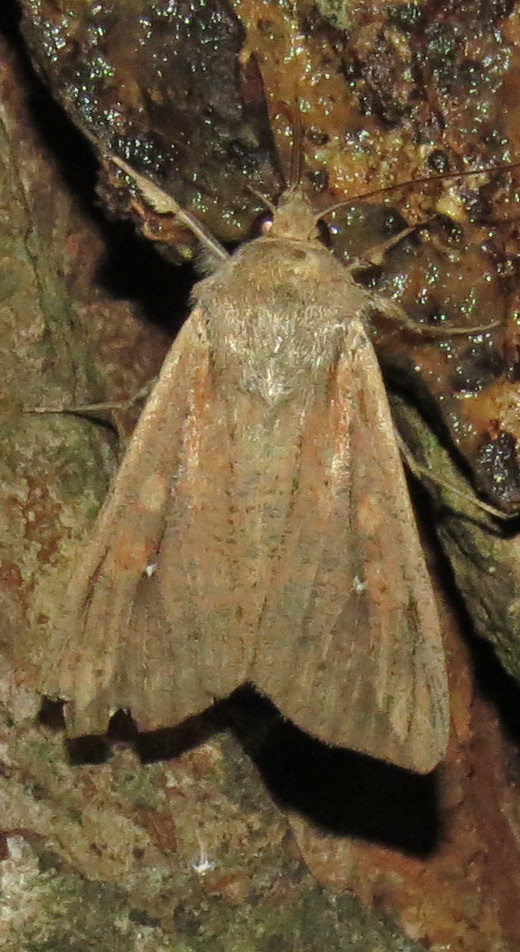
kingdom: Animalia
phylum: Arthropoda
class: Insecta
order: Lepidoptera
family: Noctuidae
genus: Mythimna
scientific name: Mythimna unipuncta
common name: White-speck
